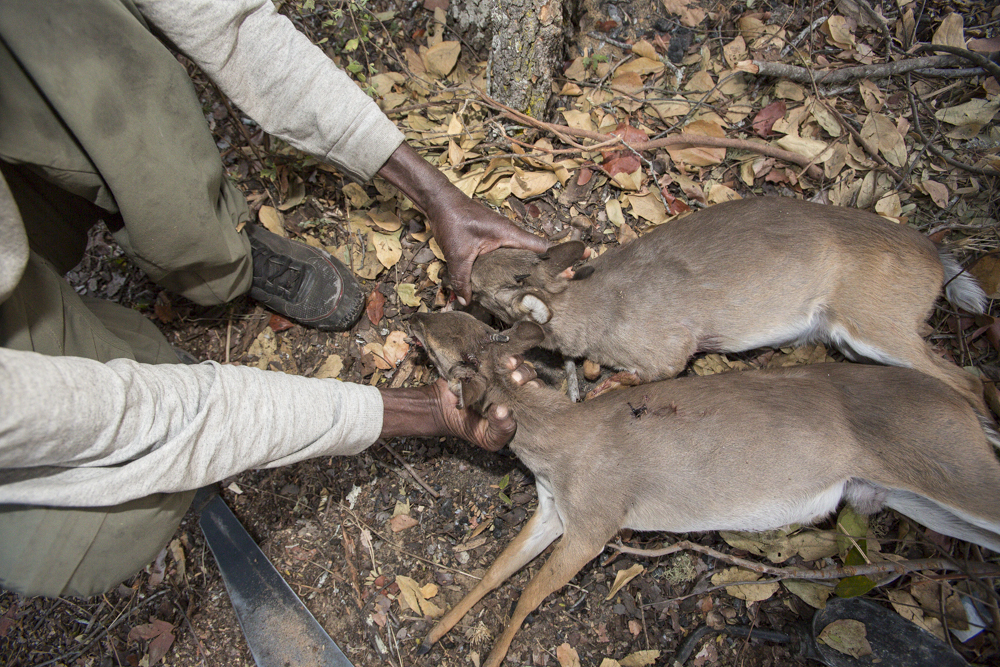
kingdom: Animalia
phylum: Chordata
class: Mammalia
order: Artiodactyla
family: Bovidae
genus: Philantomba
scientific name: Philantomba monticola
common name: Blue duiker
